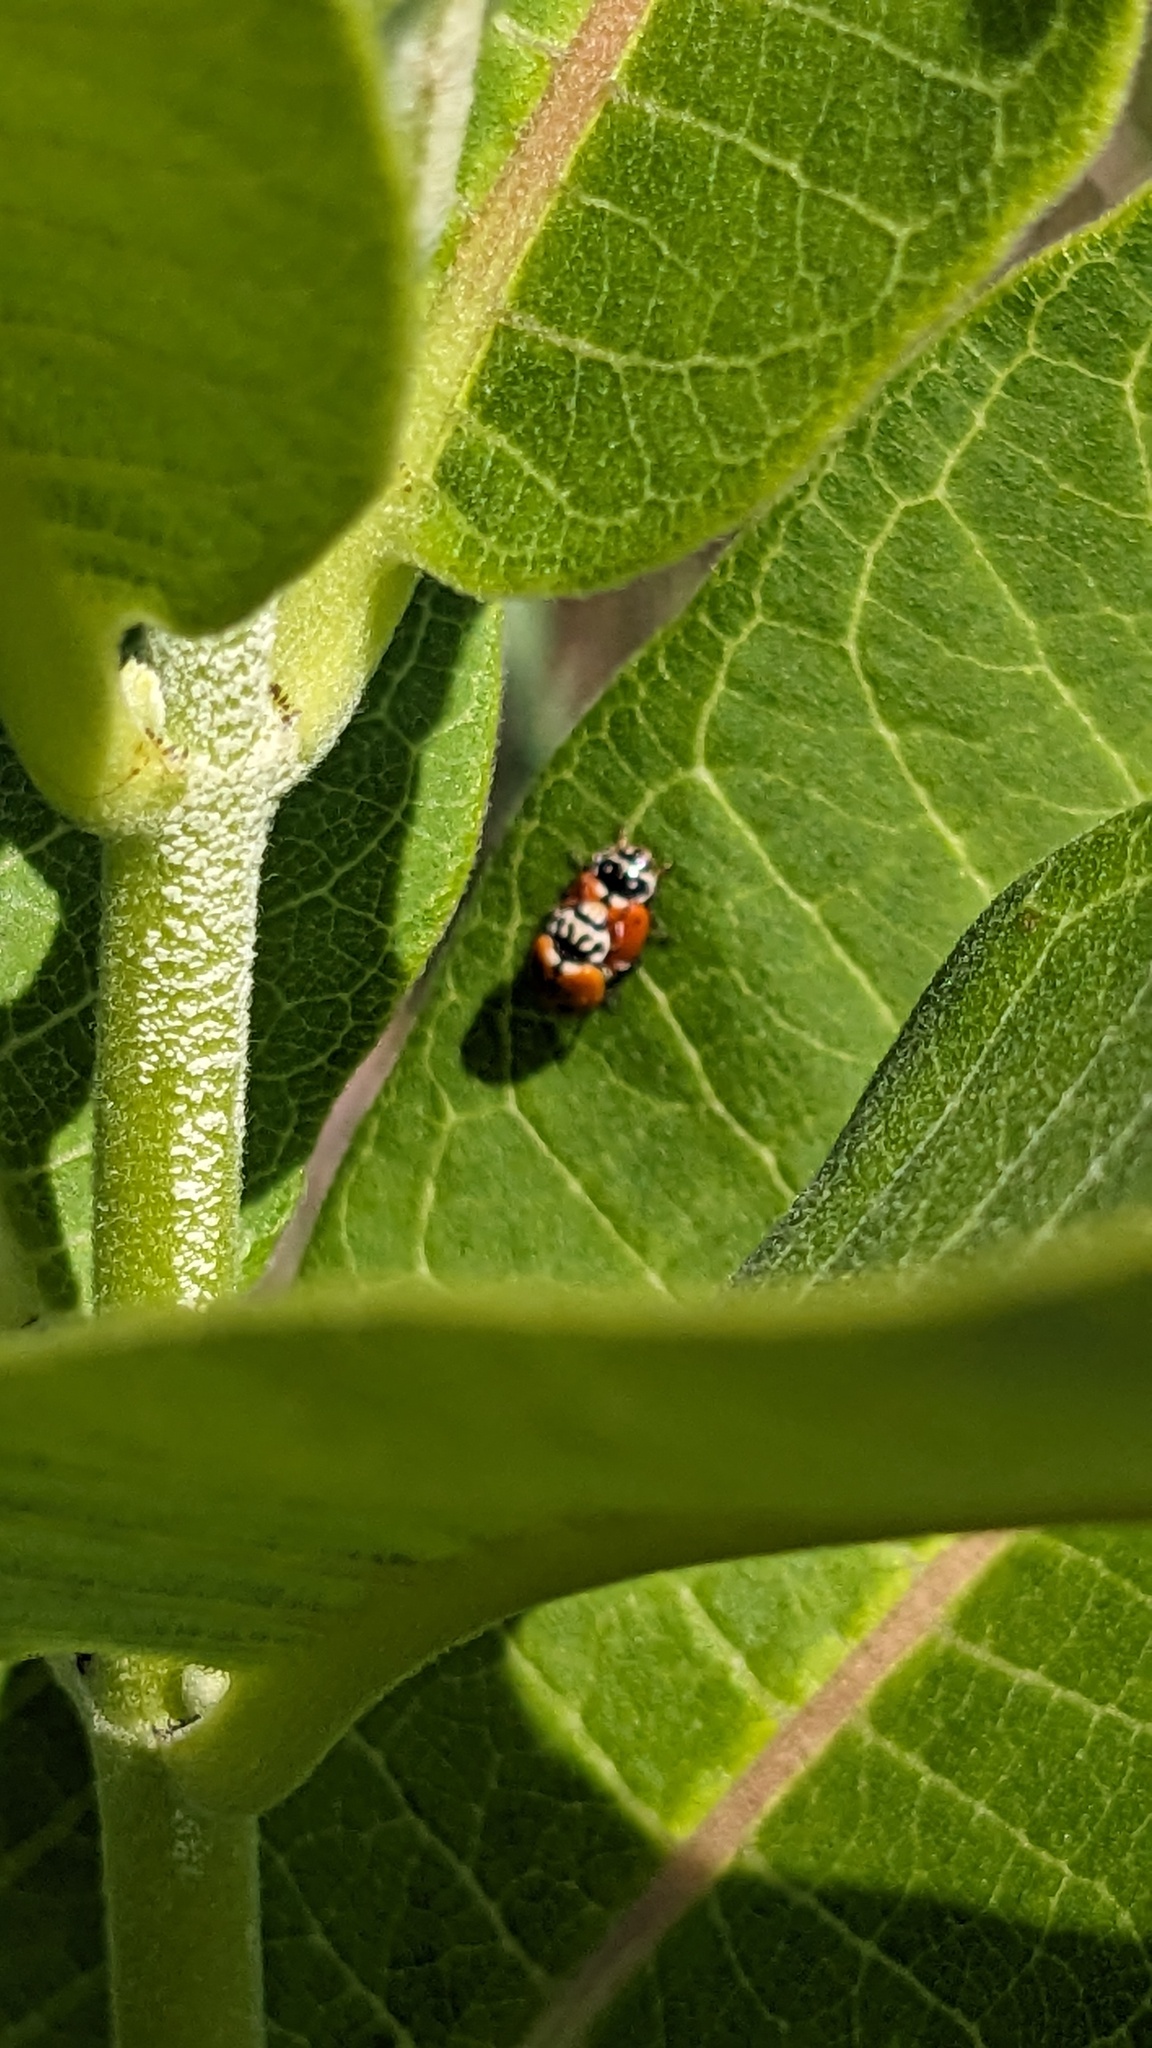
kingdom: Animalia
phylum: Arthropoda
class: Insecta
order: Coleoptera
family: Coccinellidae
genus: Hippodamia
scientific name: Hippodamia variegata
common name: Ladybird beetle
